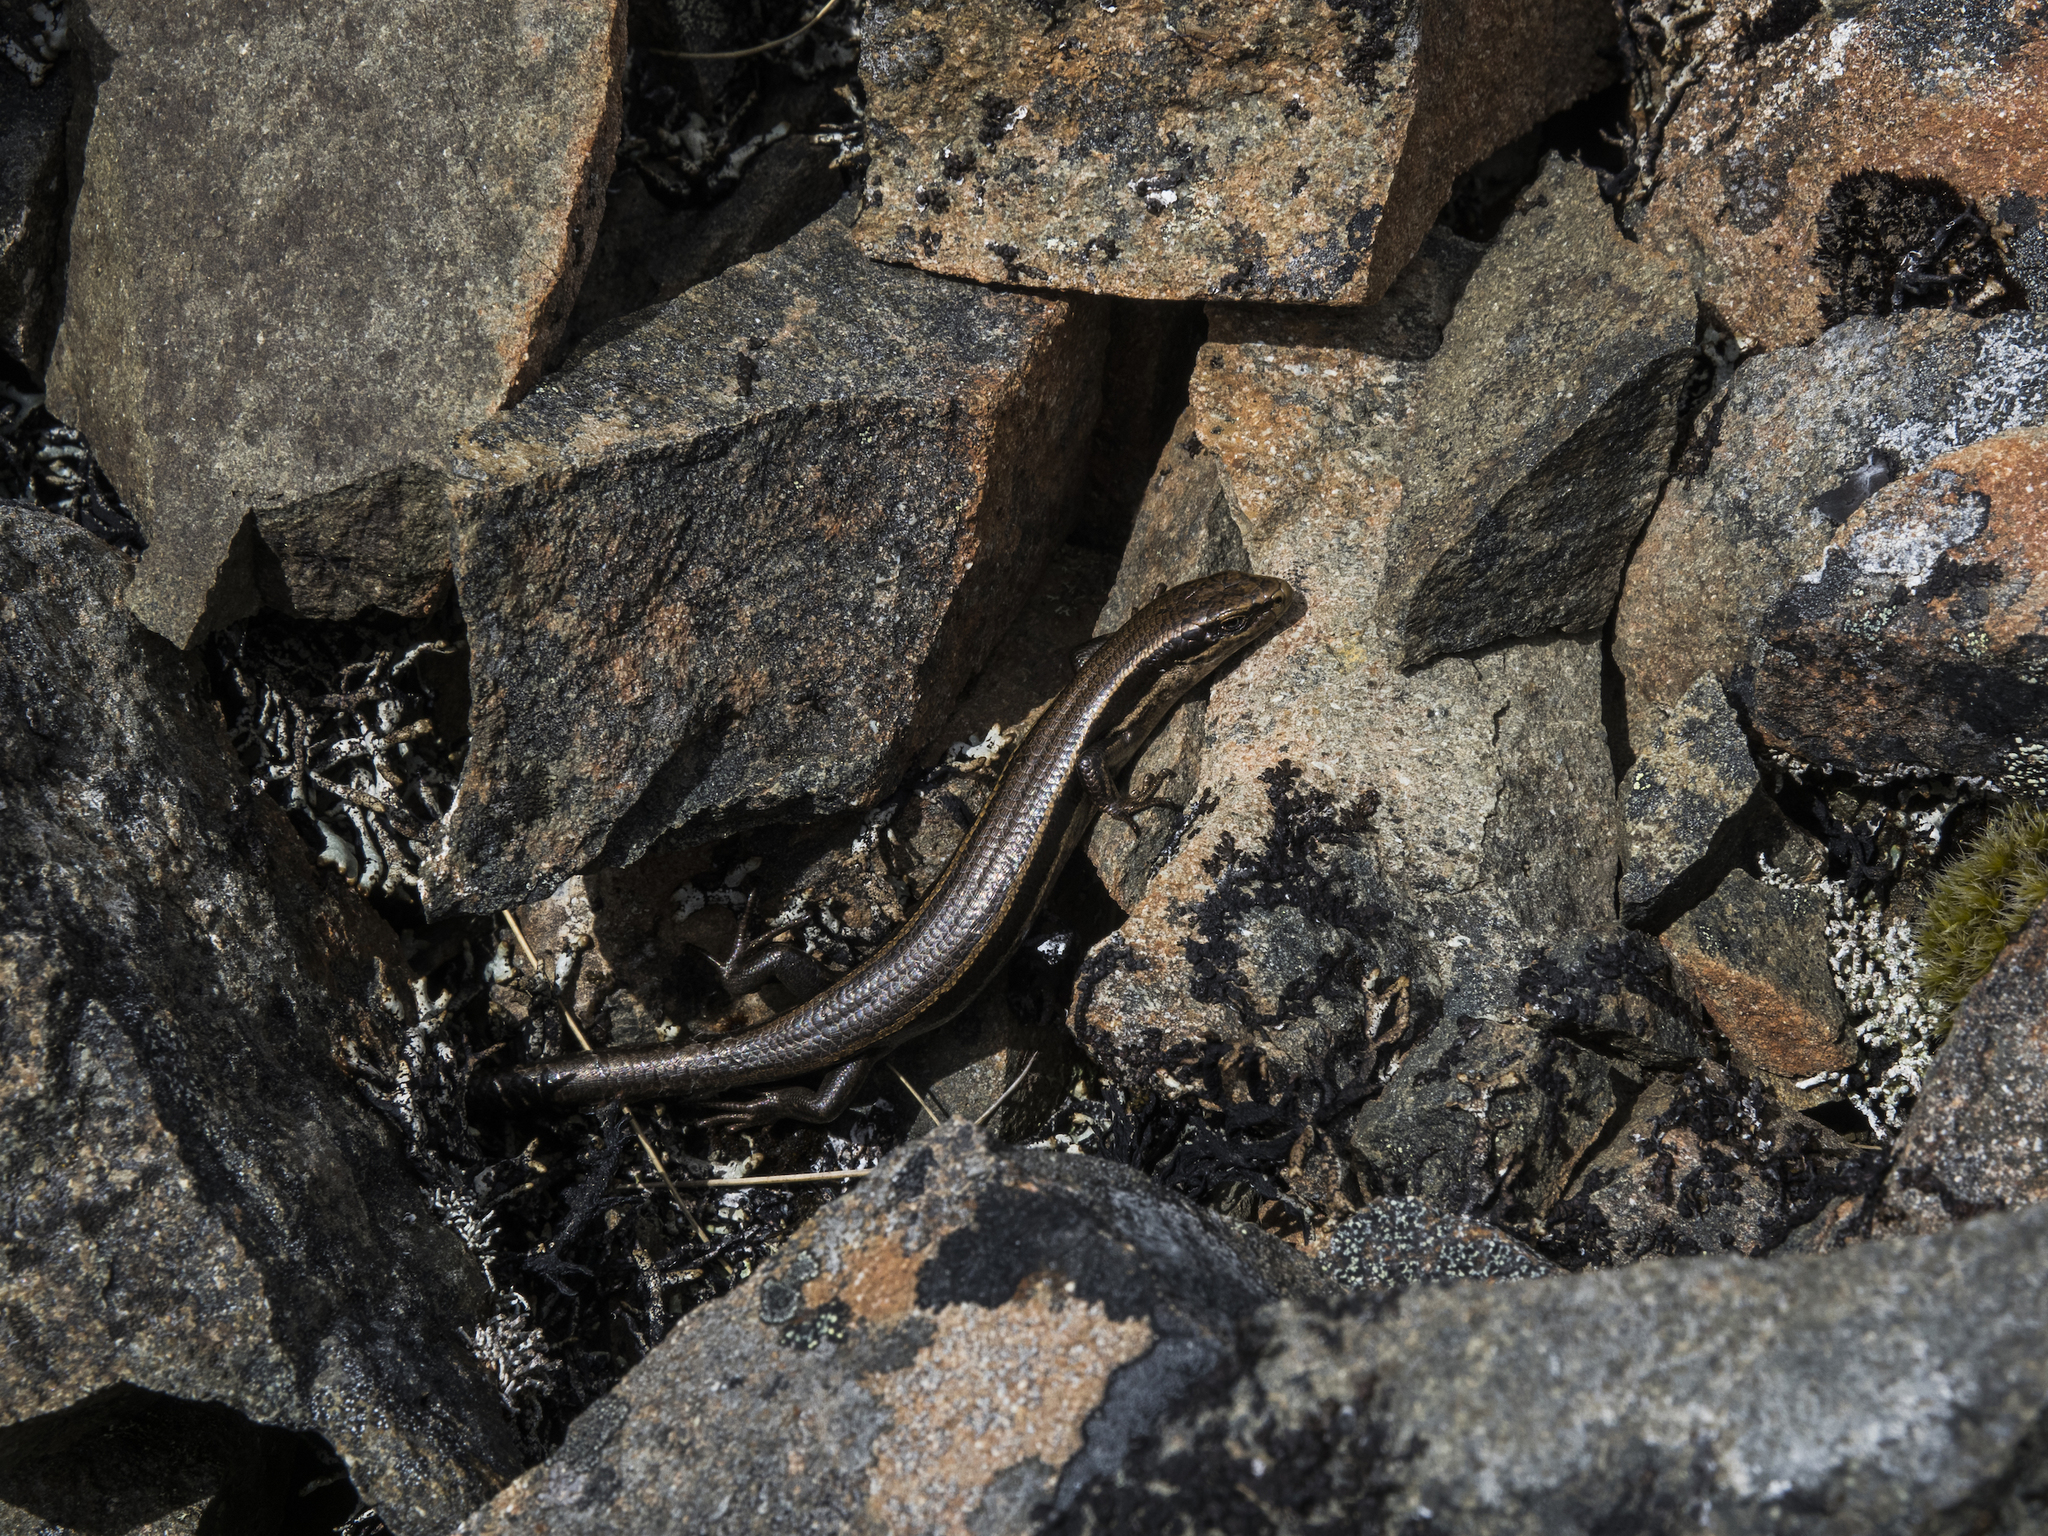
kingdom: Animalia
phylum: Chordata
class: Squamata
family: Scincidae
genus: Oligosoma
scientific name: Oligosoma repens
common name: Eyres skink
